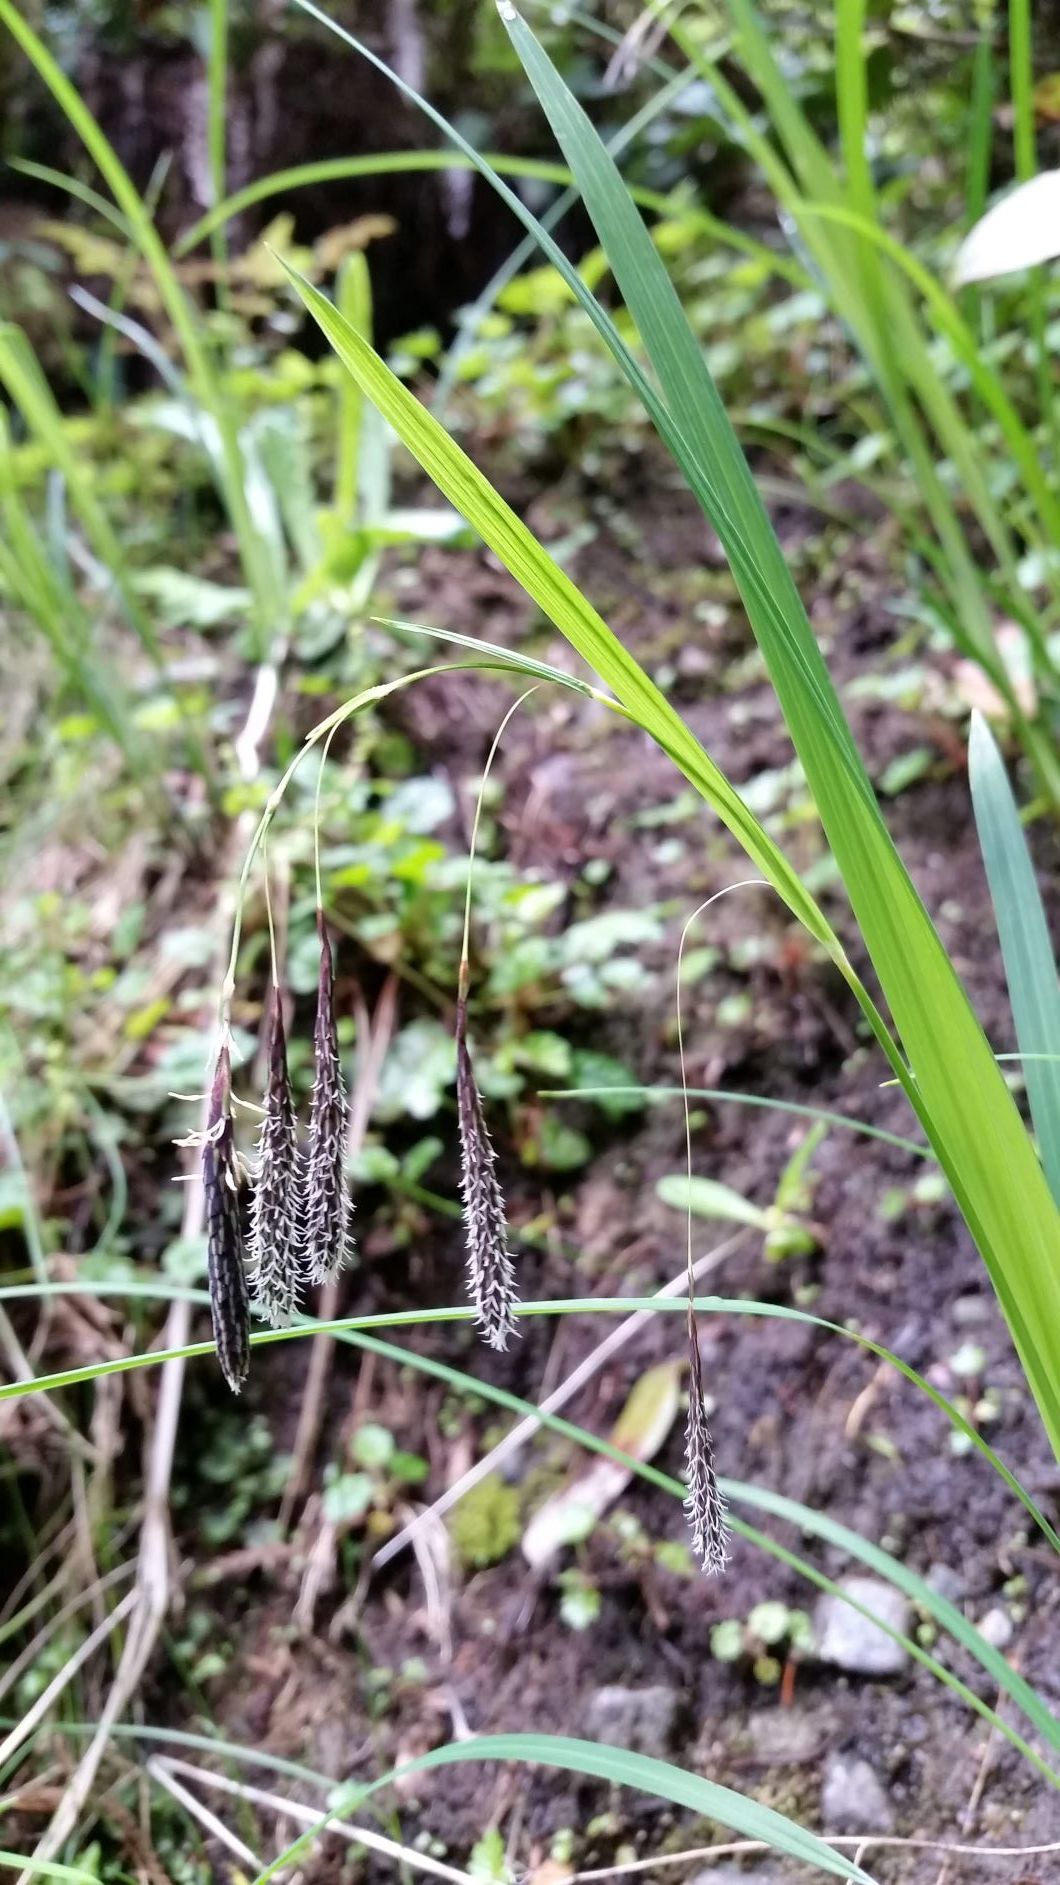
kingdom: Plantae
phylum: Tracheophyta
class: Liliopsida
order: Poales
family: Cyperaceae
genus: Carex
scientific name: Carex mertensii
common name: Mertens' sedge
